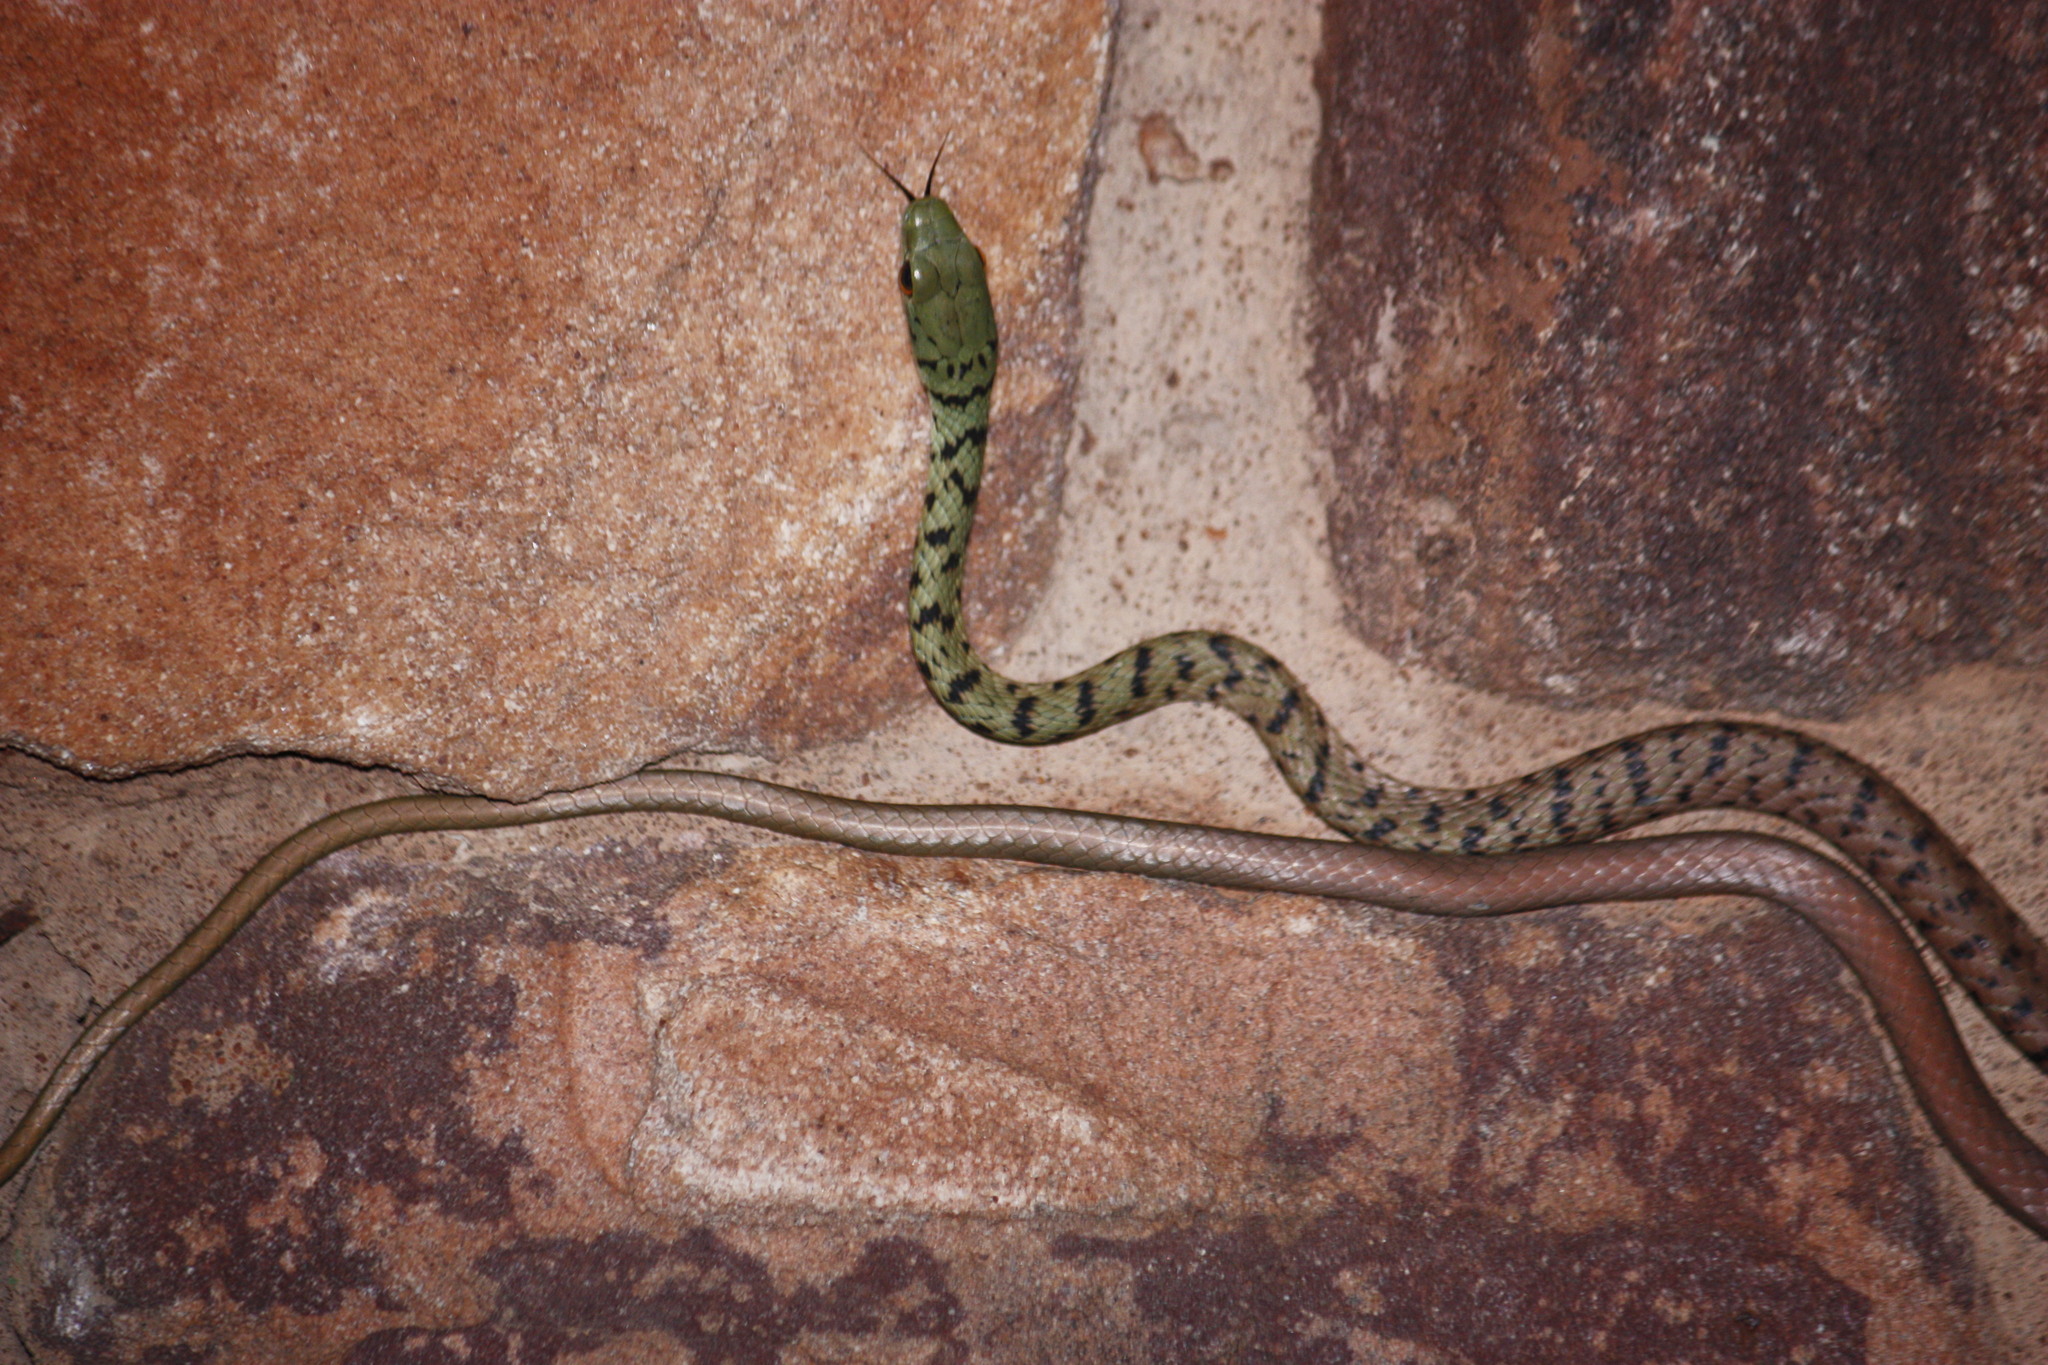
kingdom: Animalia
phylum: Chordata
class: Squamata
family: Colubridae
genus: Philothamnus
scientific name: Philothamnus semivariegatus
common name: Spotted bush snake
